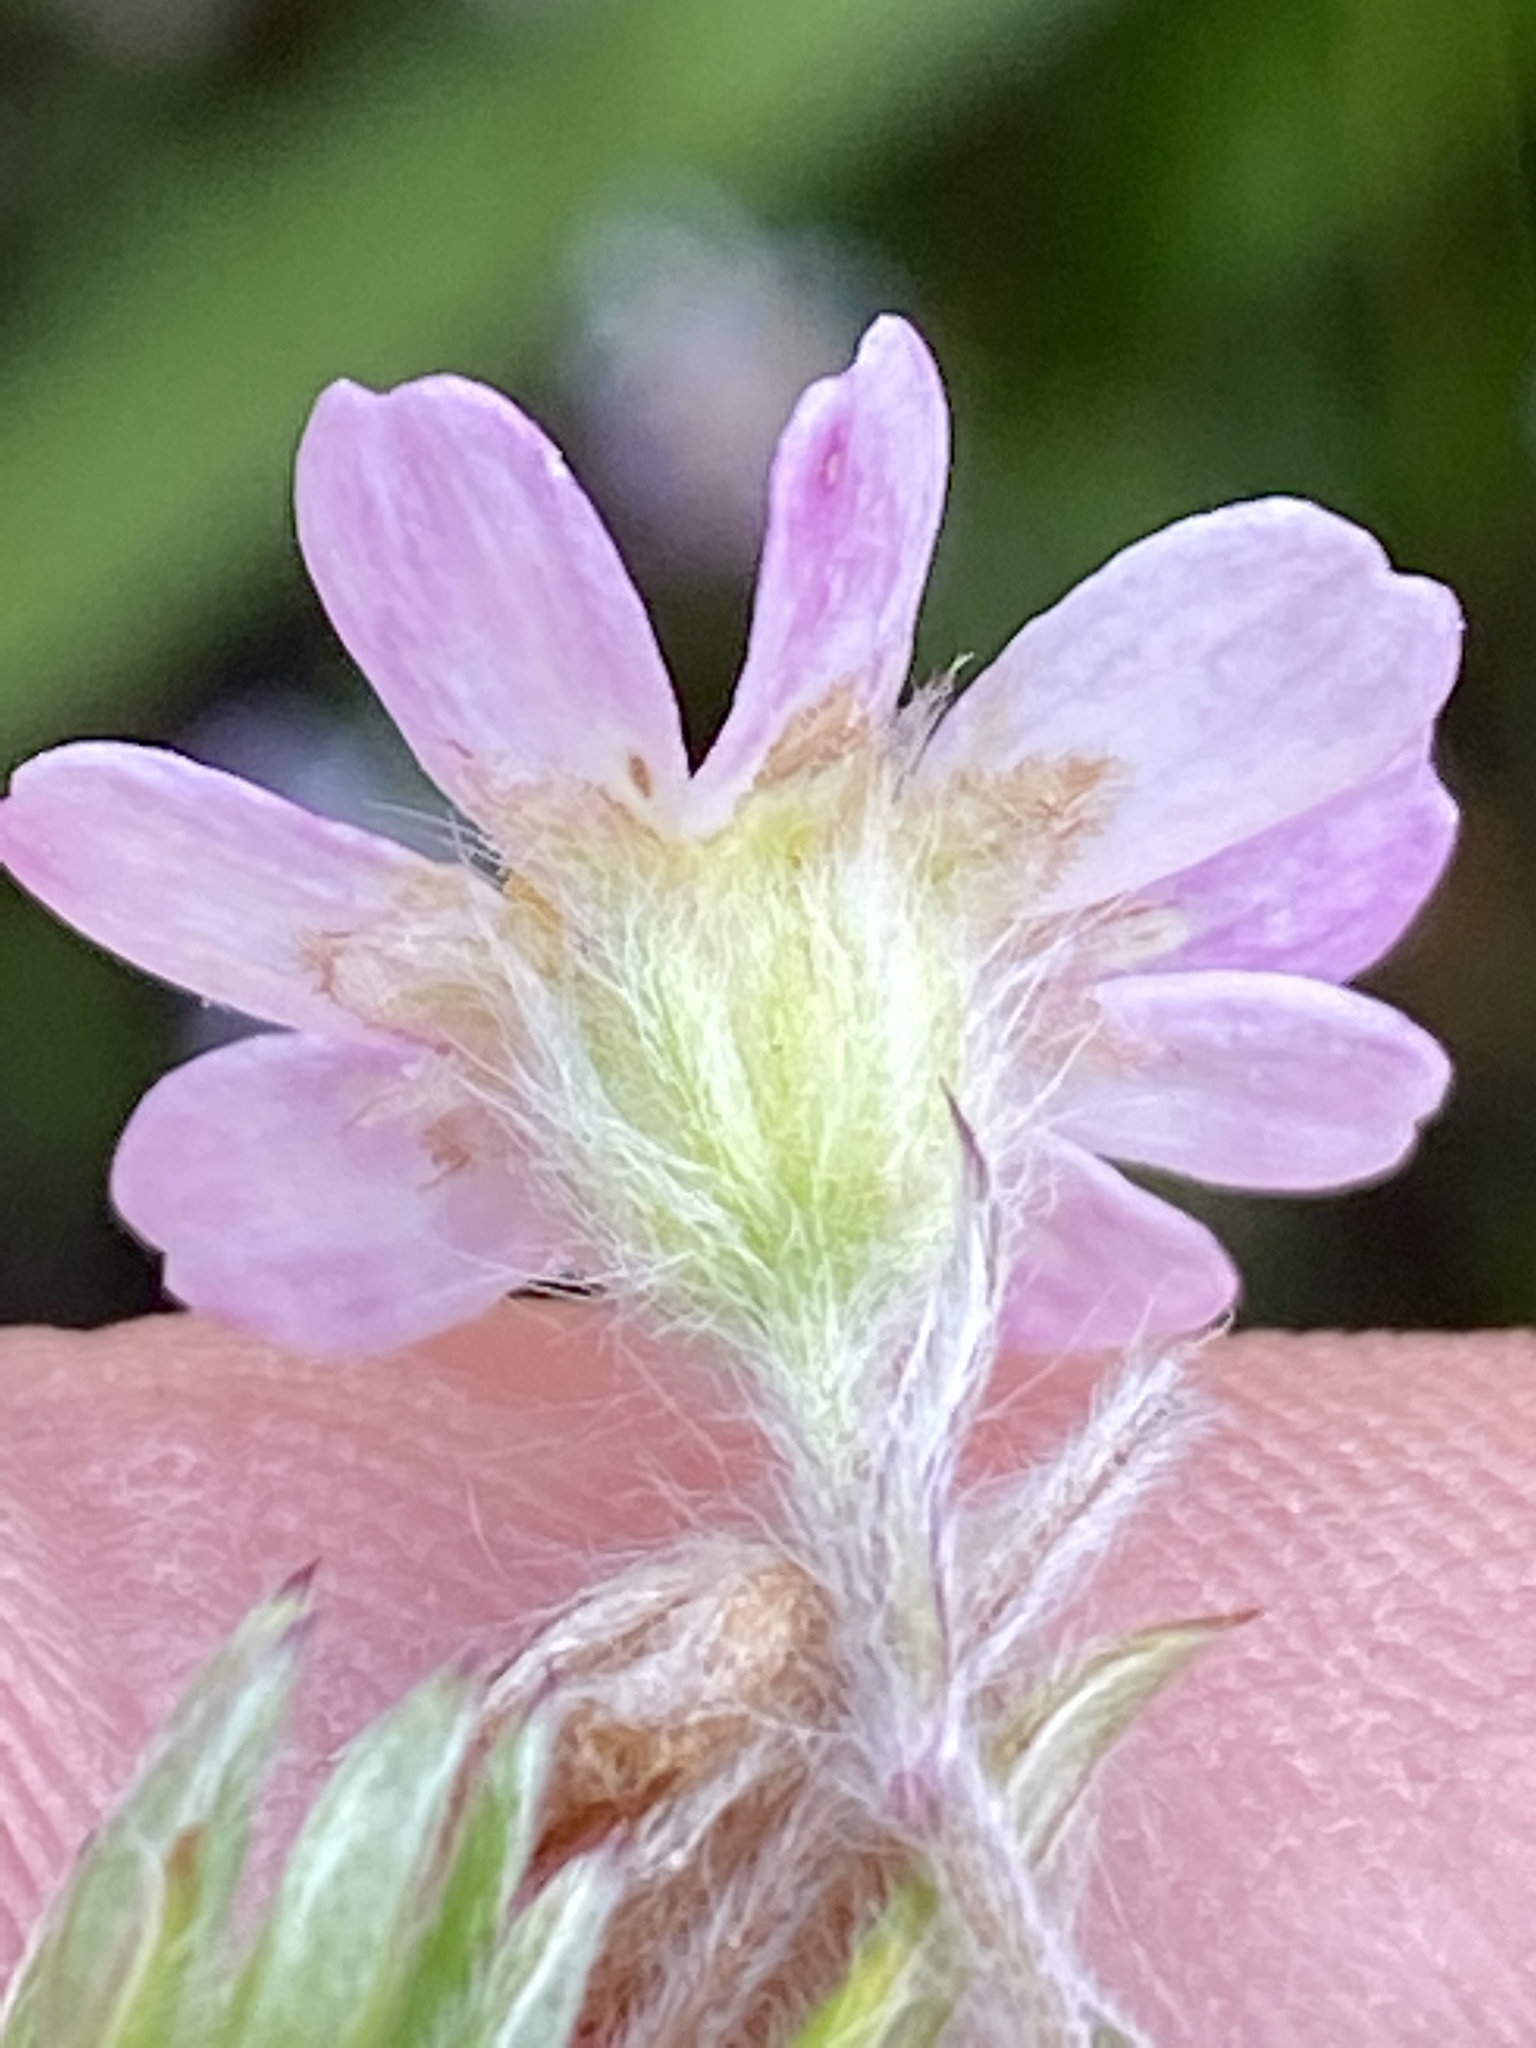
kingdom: Plantae
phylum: Tracheophyta
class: Magnoliopsida
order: Asterales
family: Asteraceae
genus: Thaminophyllum
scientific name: Thaminophyllum latifolium
